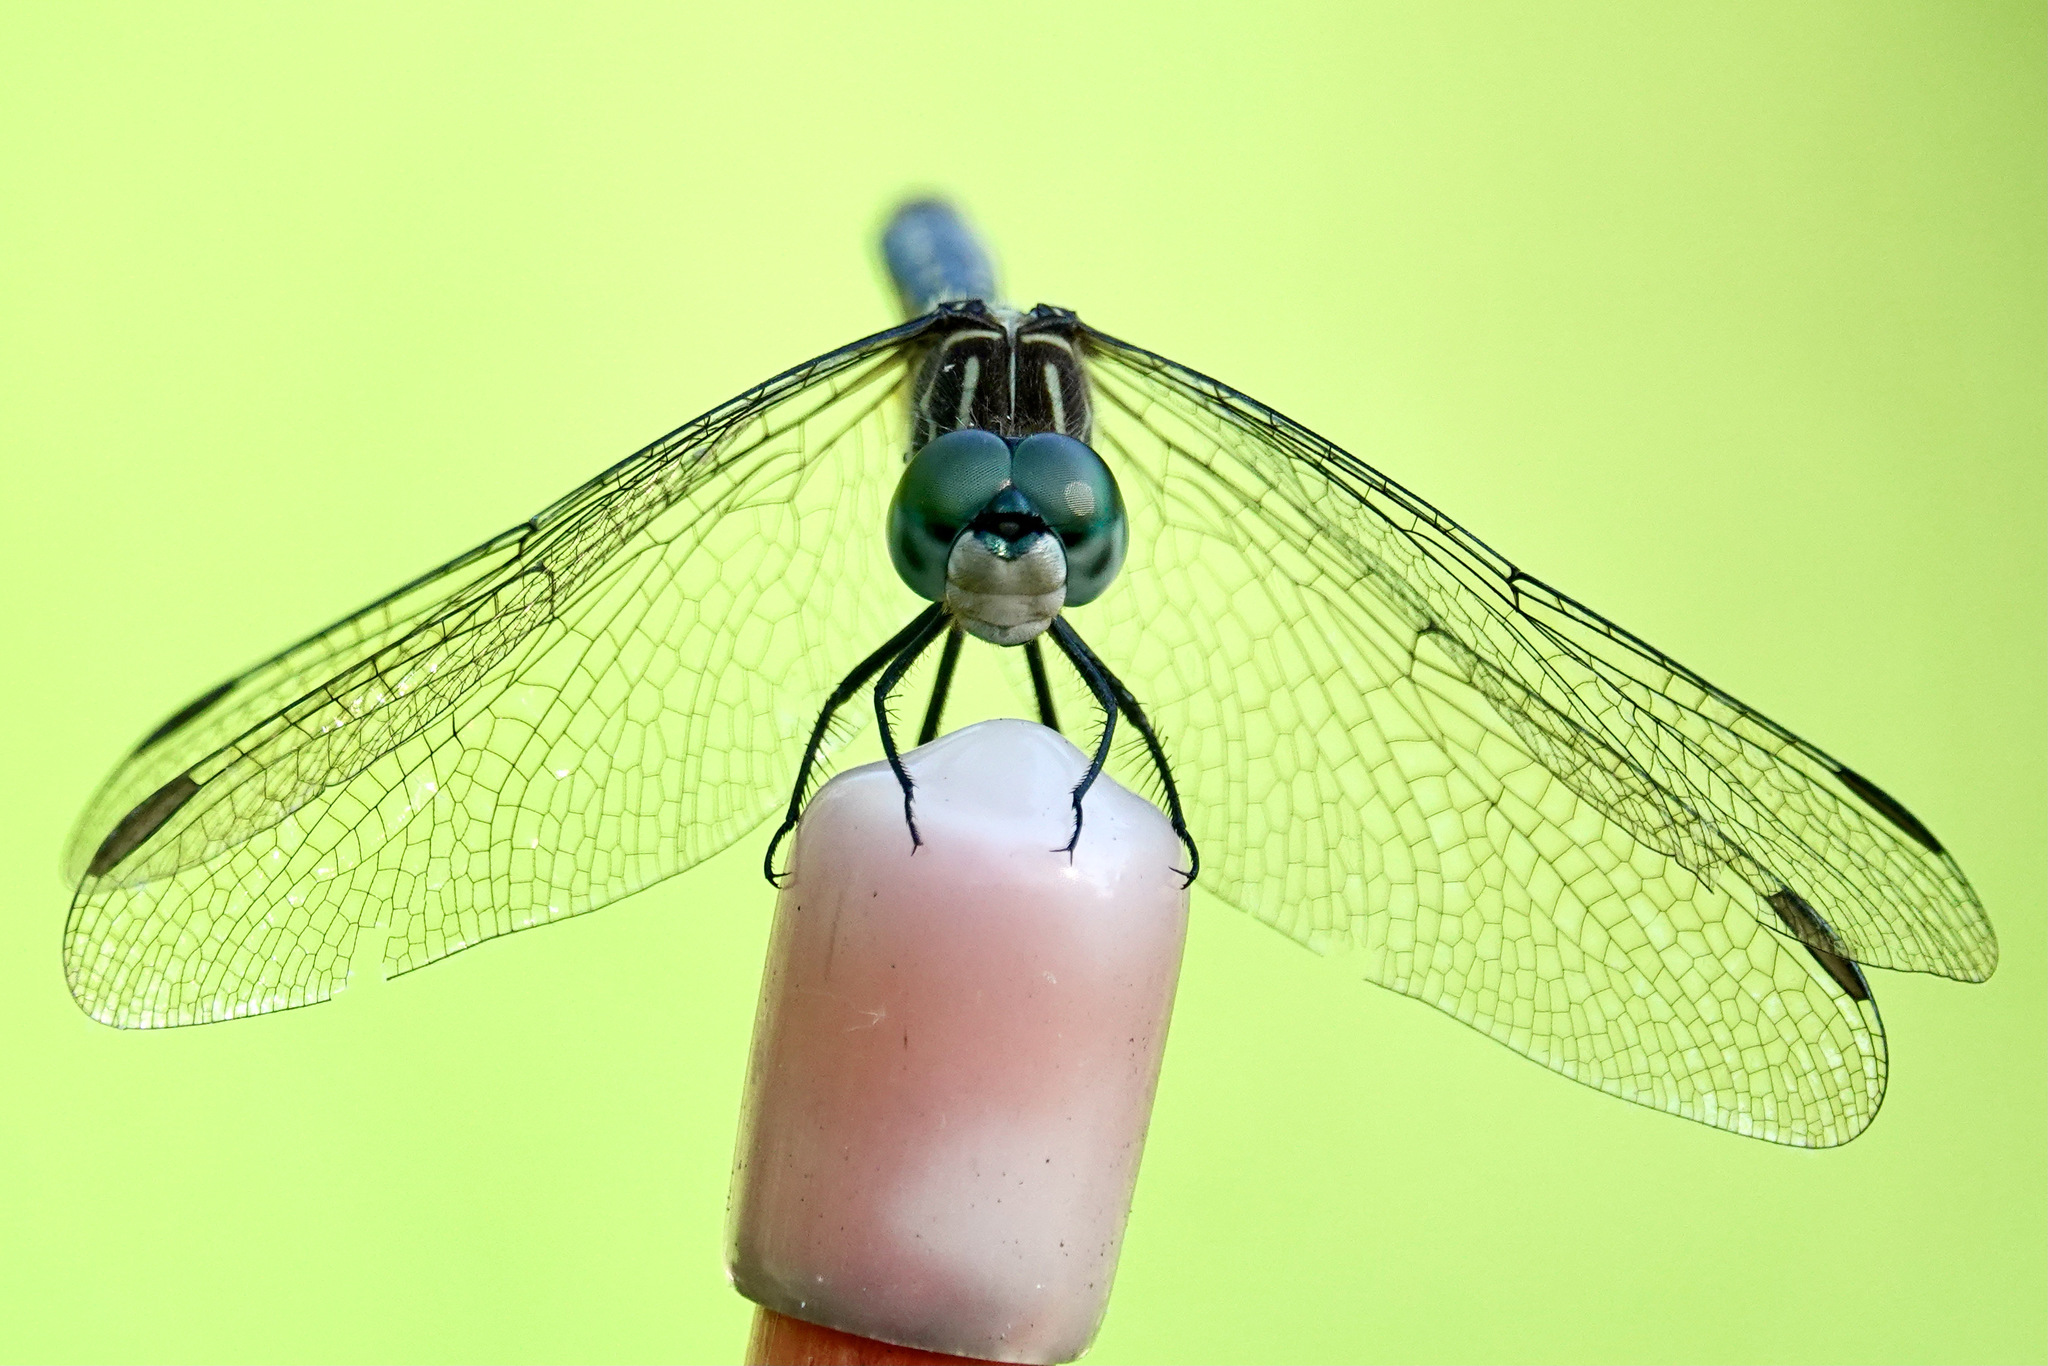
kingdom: Animalia
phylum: Arthropoda
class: Insecta
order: Odonata
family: Libellulidae
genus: Pachydiplax
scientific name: Pachydiplax longipennis
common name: Blue dasher
